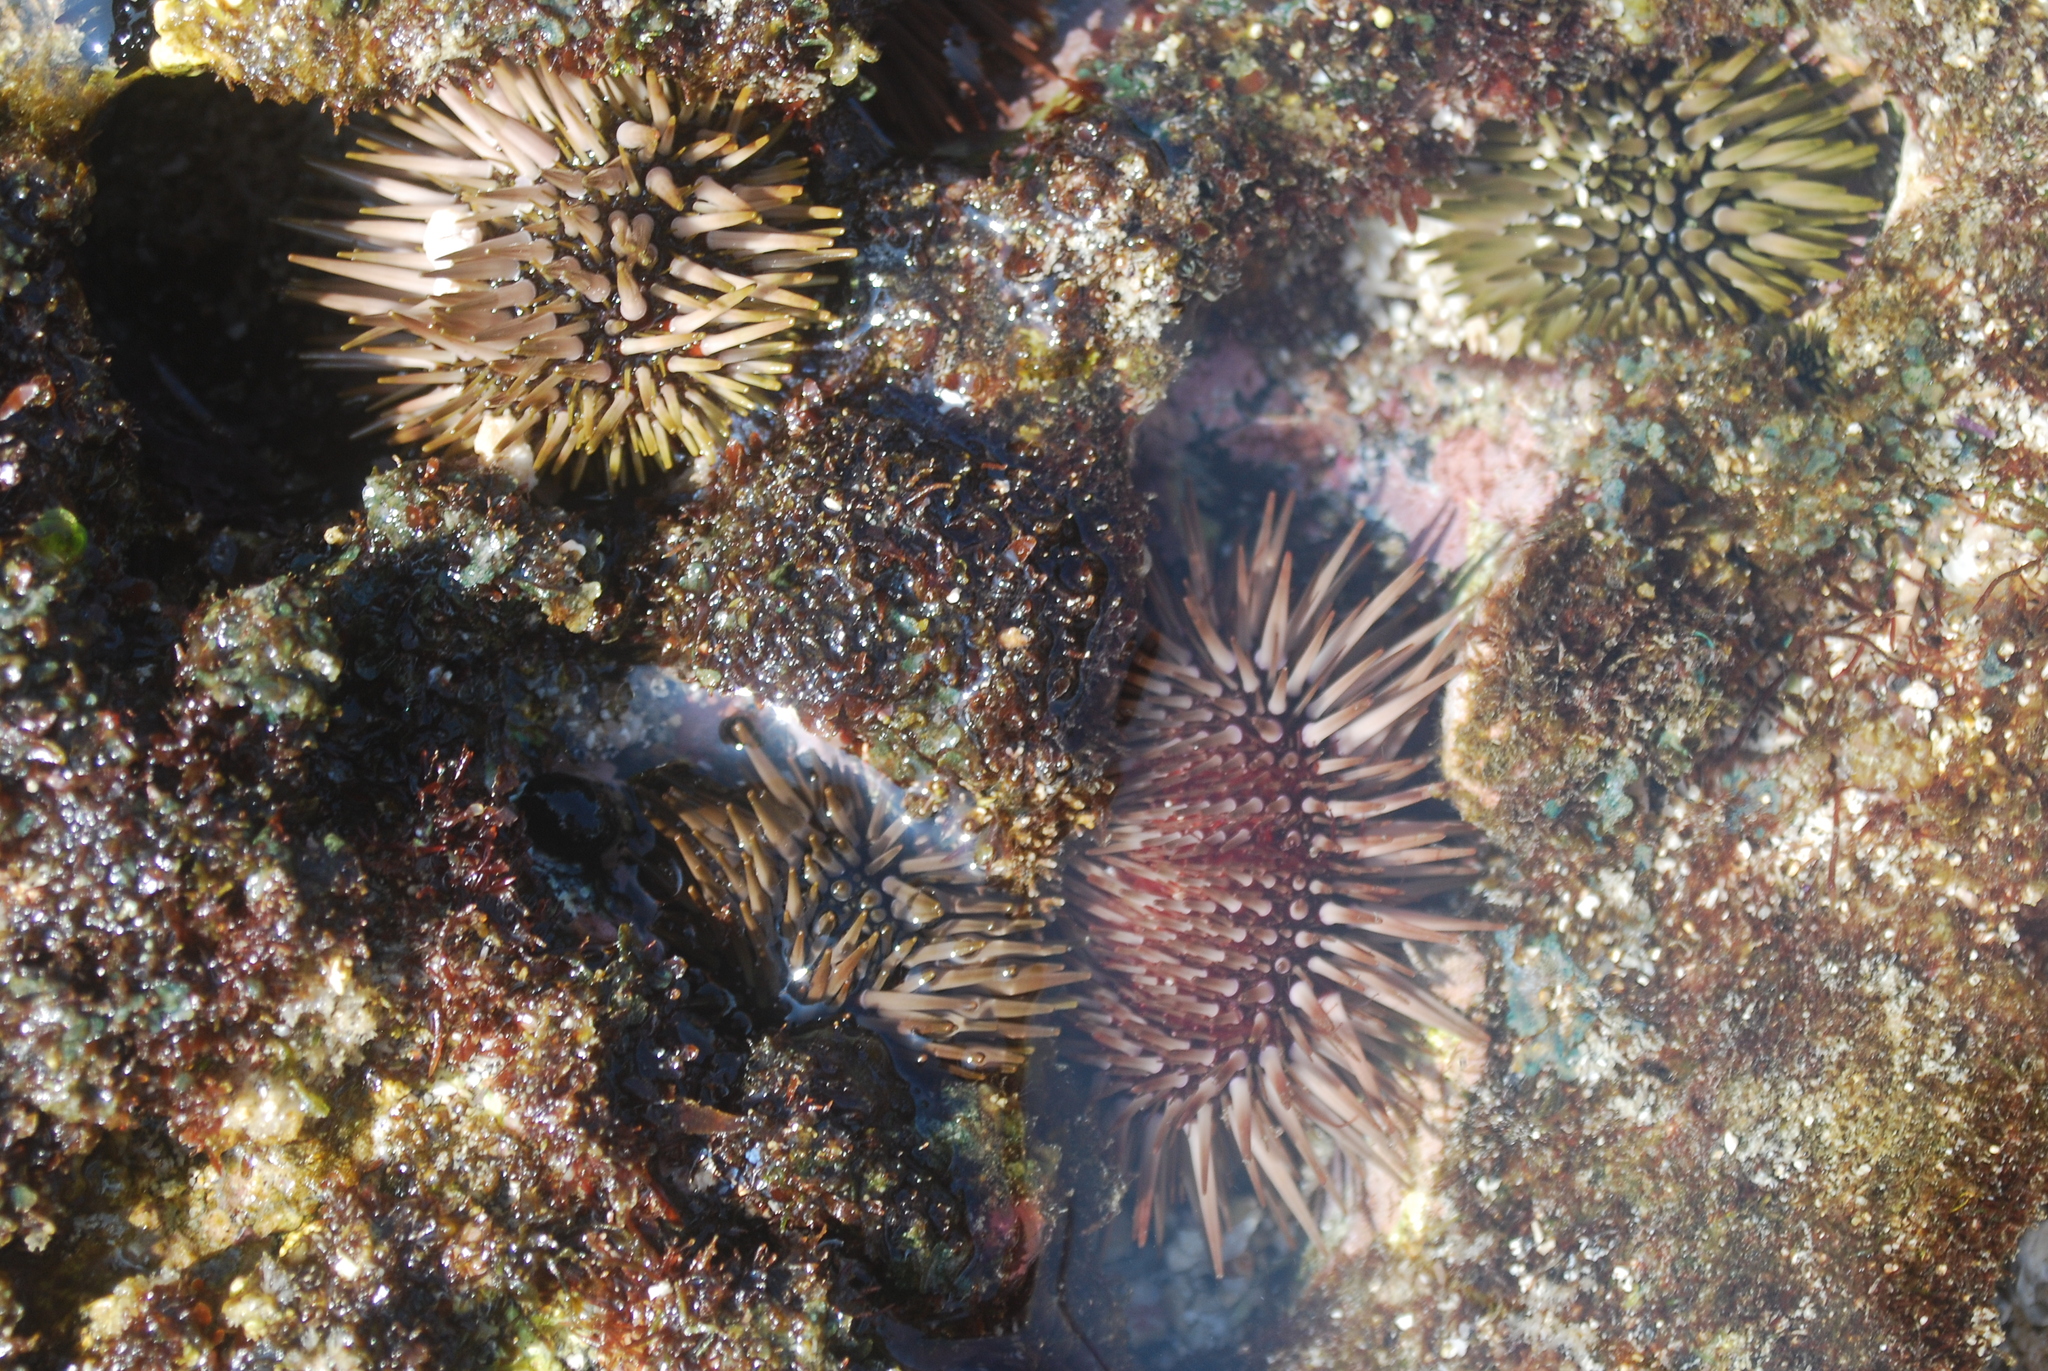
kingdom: Animalia
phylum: Echinodermata
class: Echinoidea
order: Camarodonta
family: Echinometridae
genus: Echinometra
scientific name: Echinometra mathaei
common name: Rock-boring urchin
